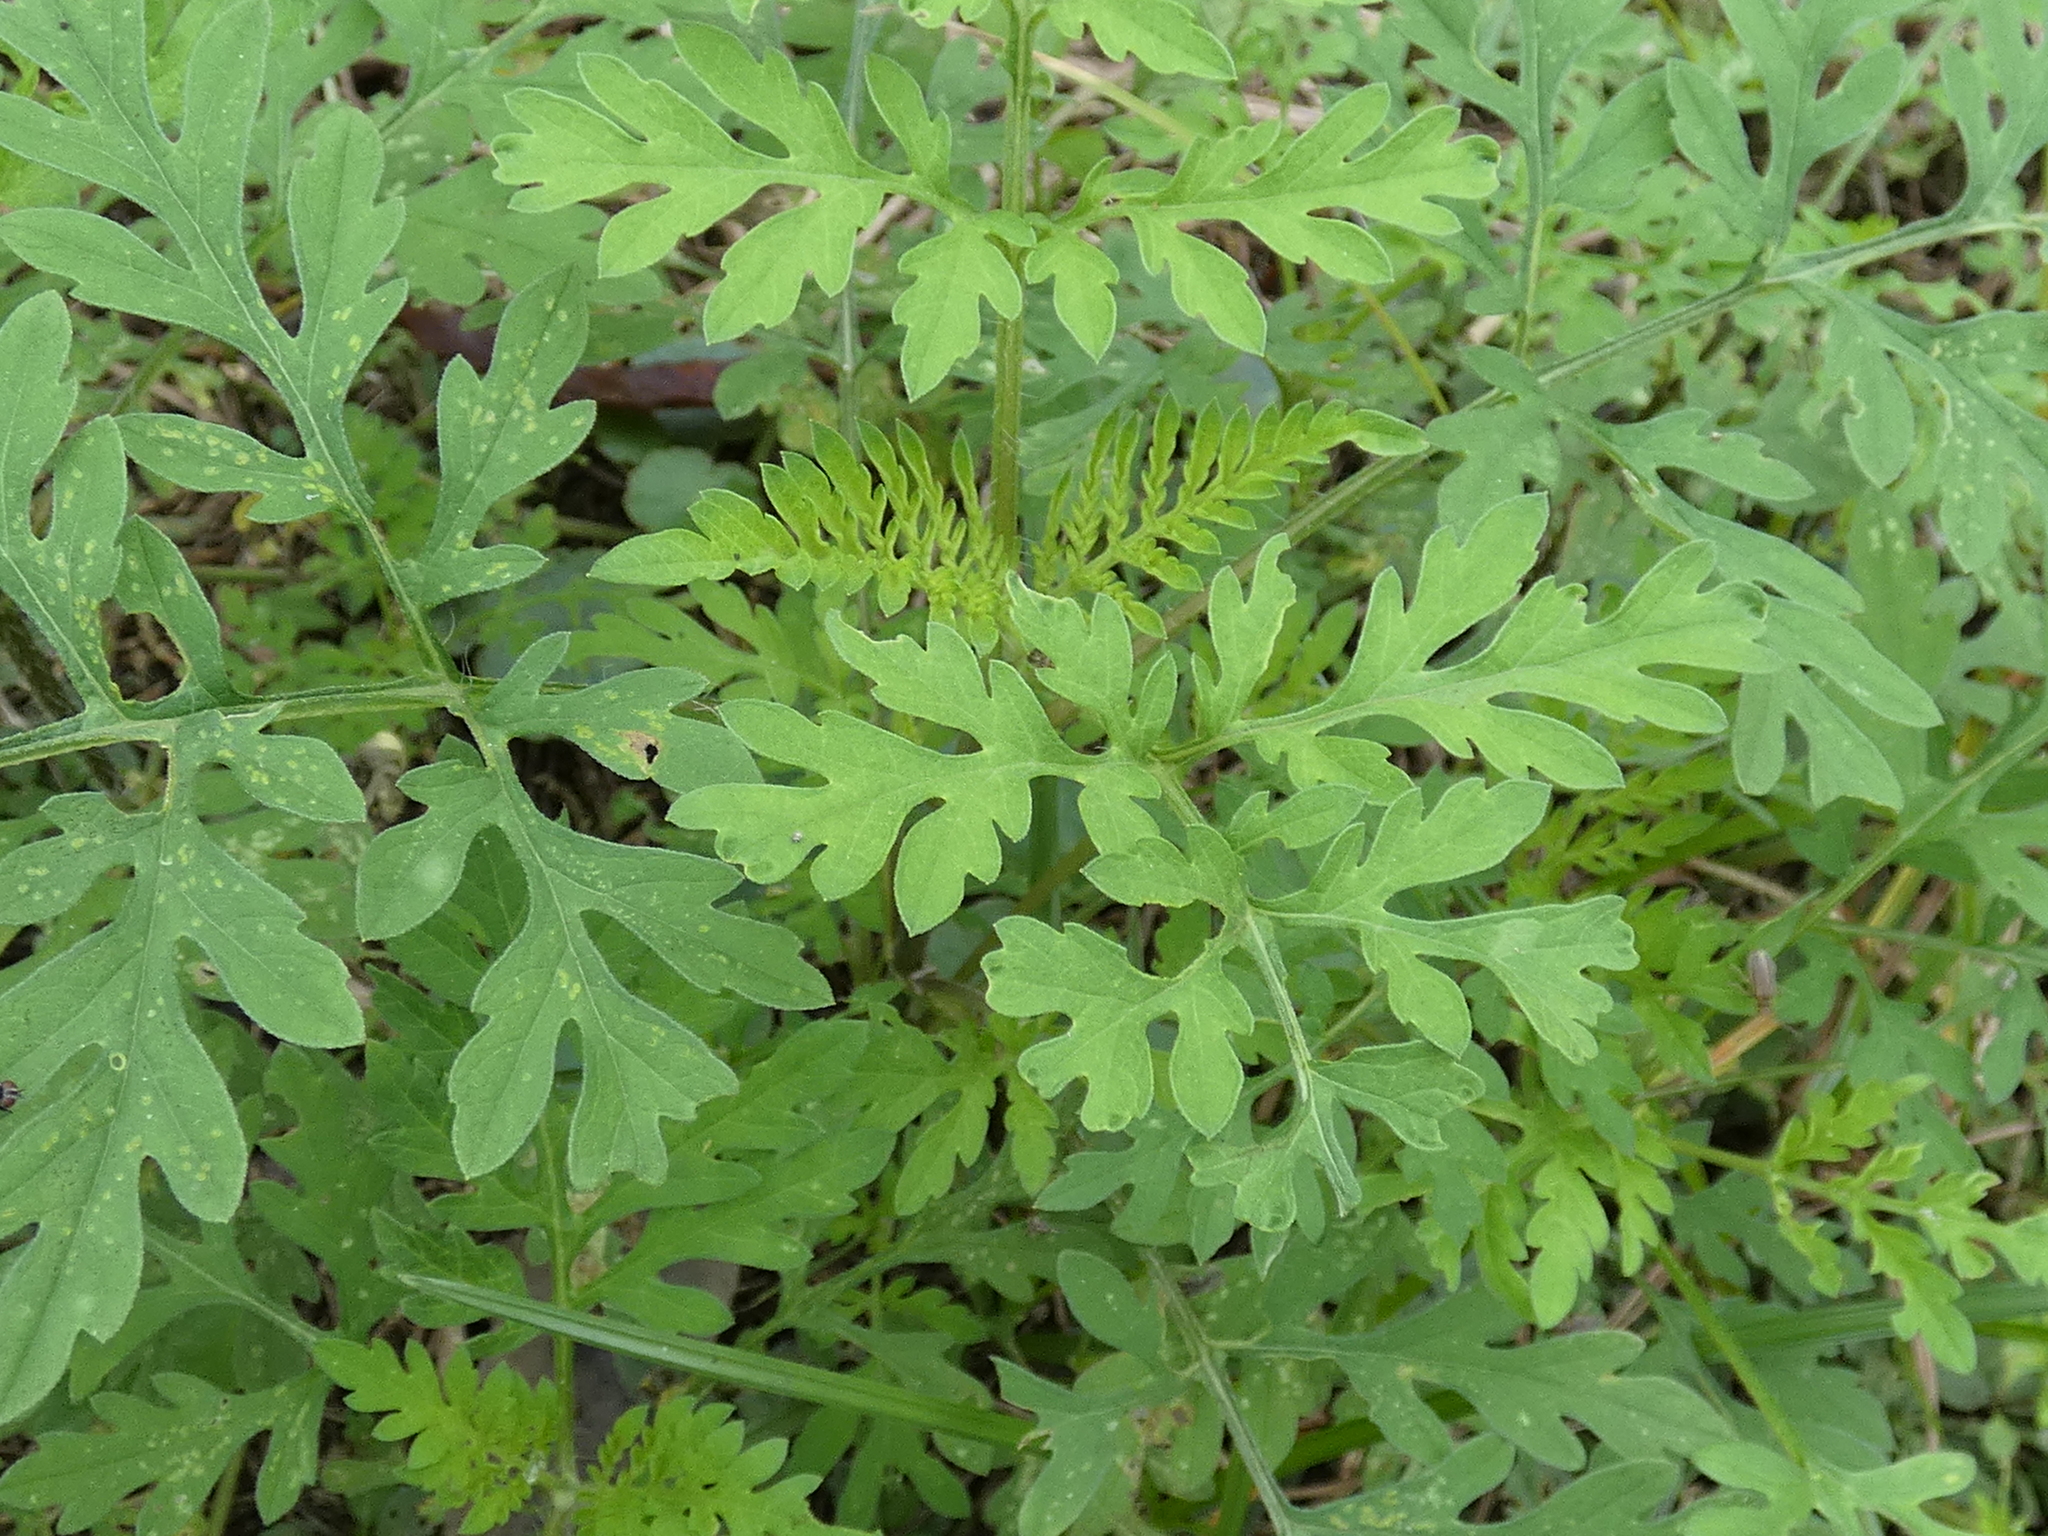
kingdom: Plantae
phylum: Tracheophyta
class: Magnoliopsida
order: Asterales
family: Asteraceae
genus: Ambrosia
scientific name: Ambrosia artemisiifolia
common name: Annual ragweed
